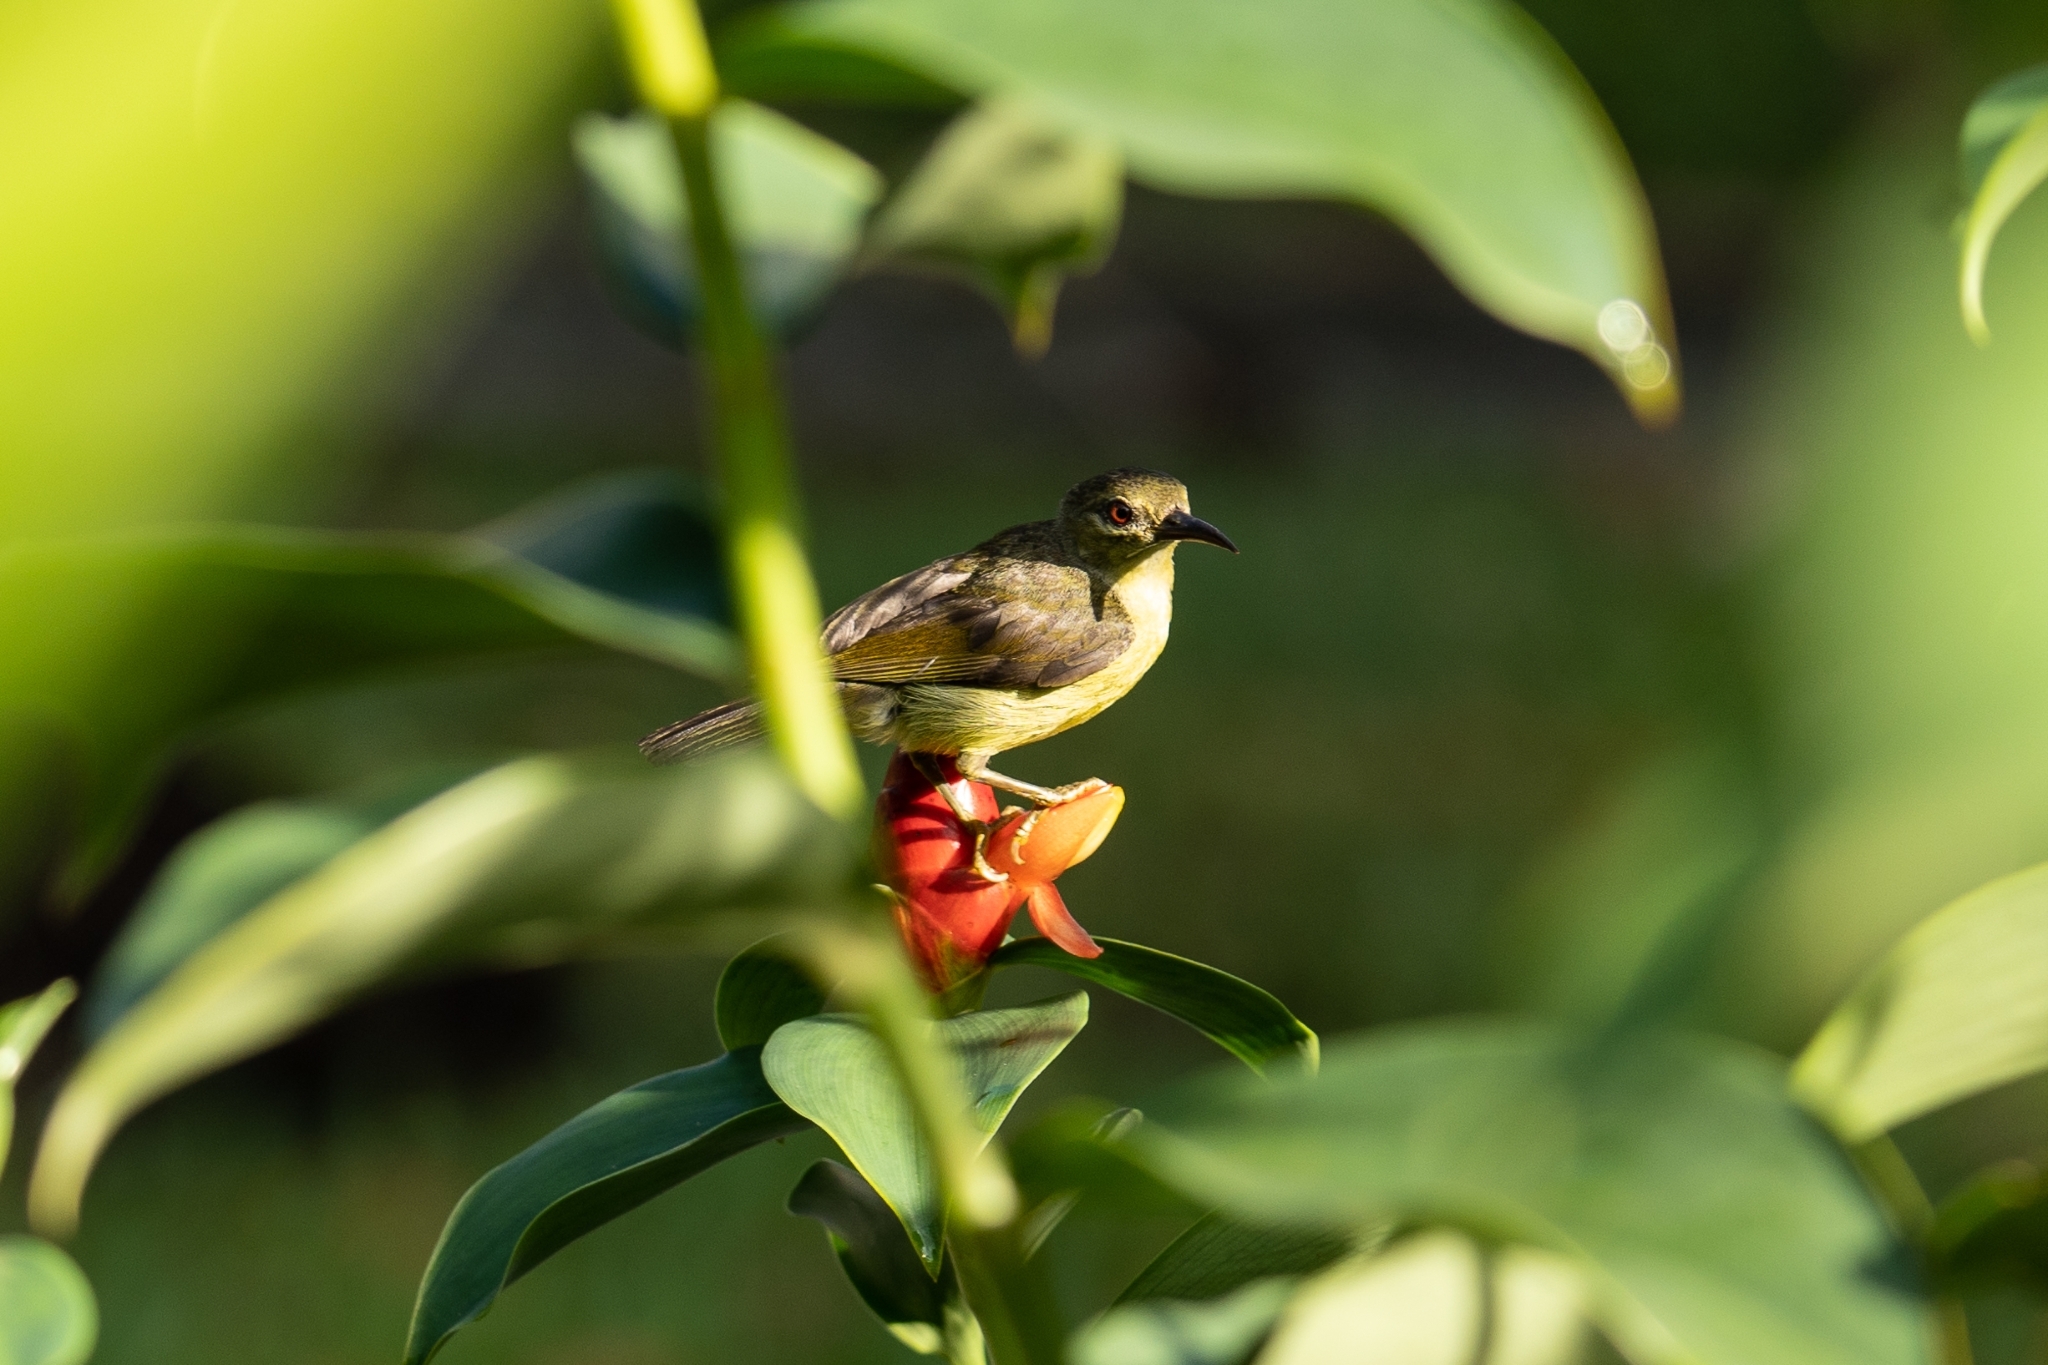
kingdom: Animalia
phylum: Chordata
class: Aves
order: Passeriformes
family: Nectariniidae
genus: Anthreptes
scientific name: Anthreptes malacensis
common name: Brown-throated sunbird
